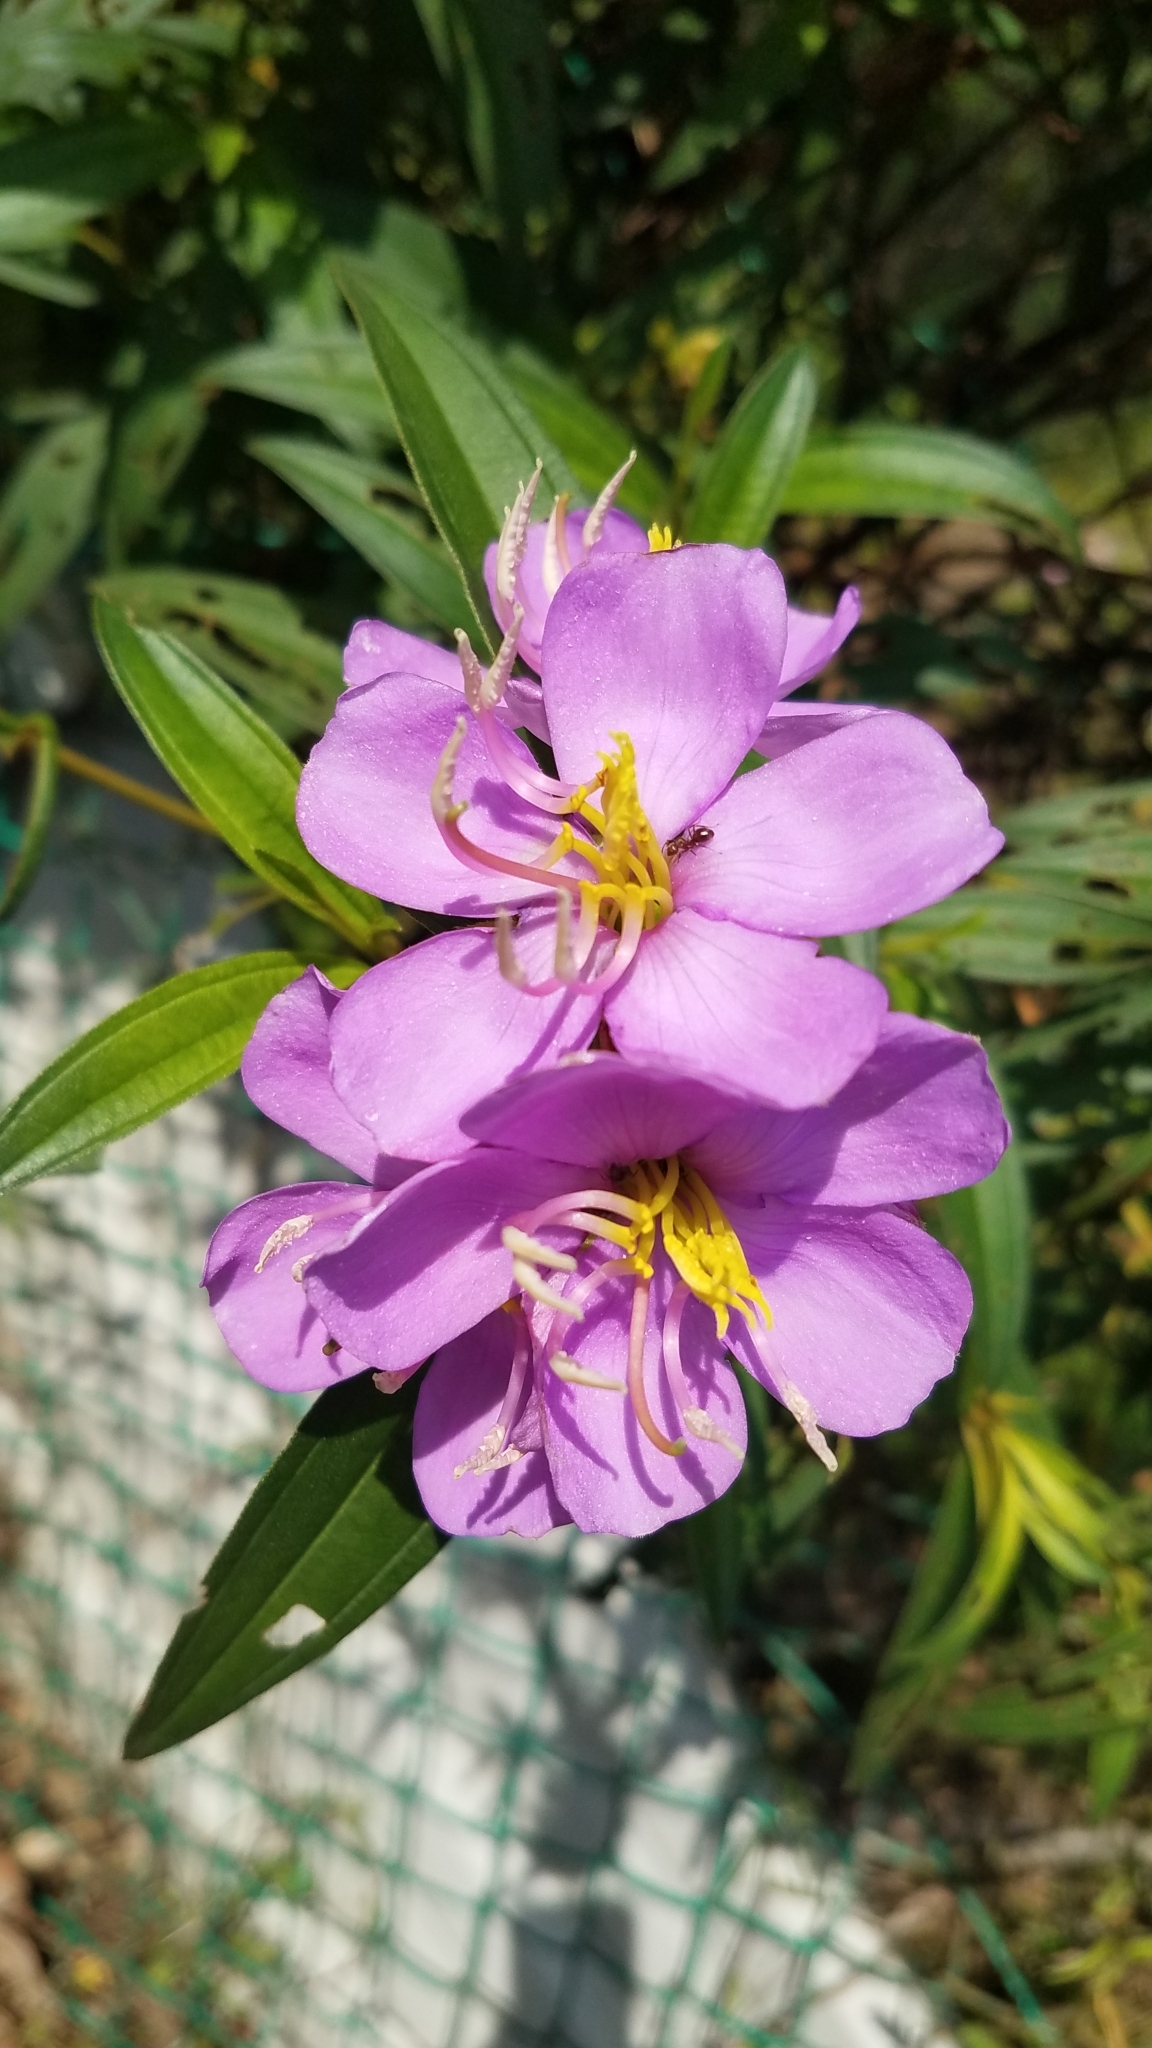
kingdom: Plantae
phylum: Tracheophyta
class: Magnoliopsida
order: Myrtales
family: Melastomataceae
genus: Melastoma
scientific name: Melastoma malabathricum
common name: Indian-rhododendron
